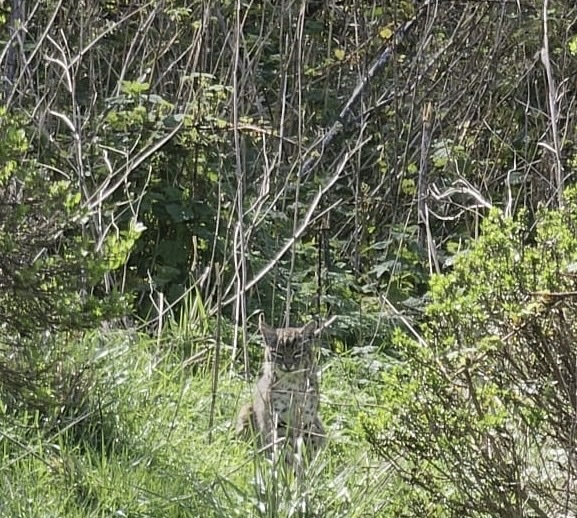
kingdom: Animalia
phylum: Chordata
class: Mammalia
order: Carnivora
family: Felidae
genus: Lynx
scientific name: Lynx rufus
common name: Bobcat
